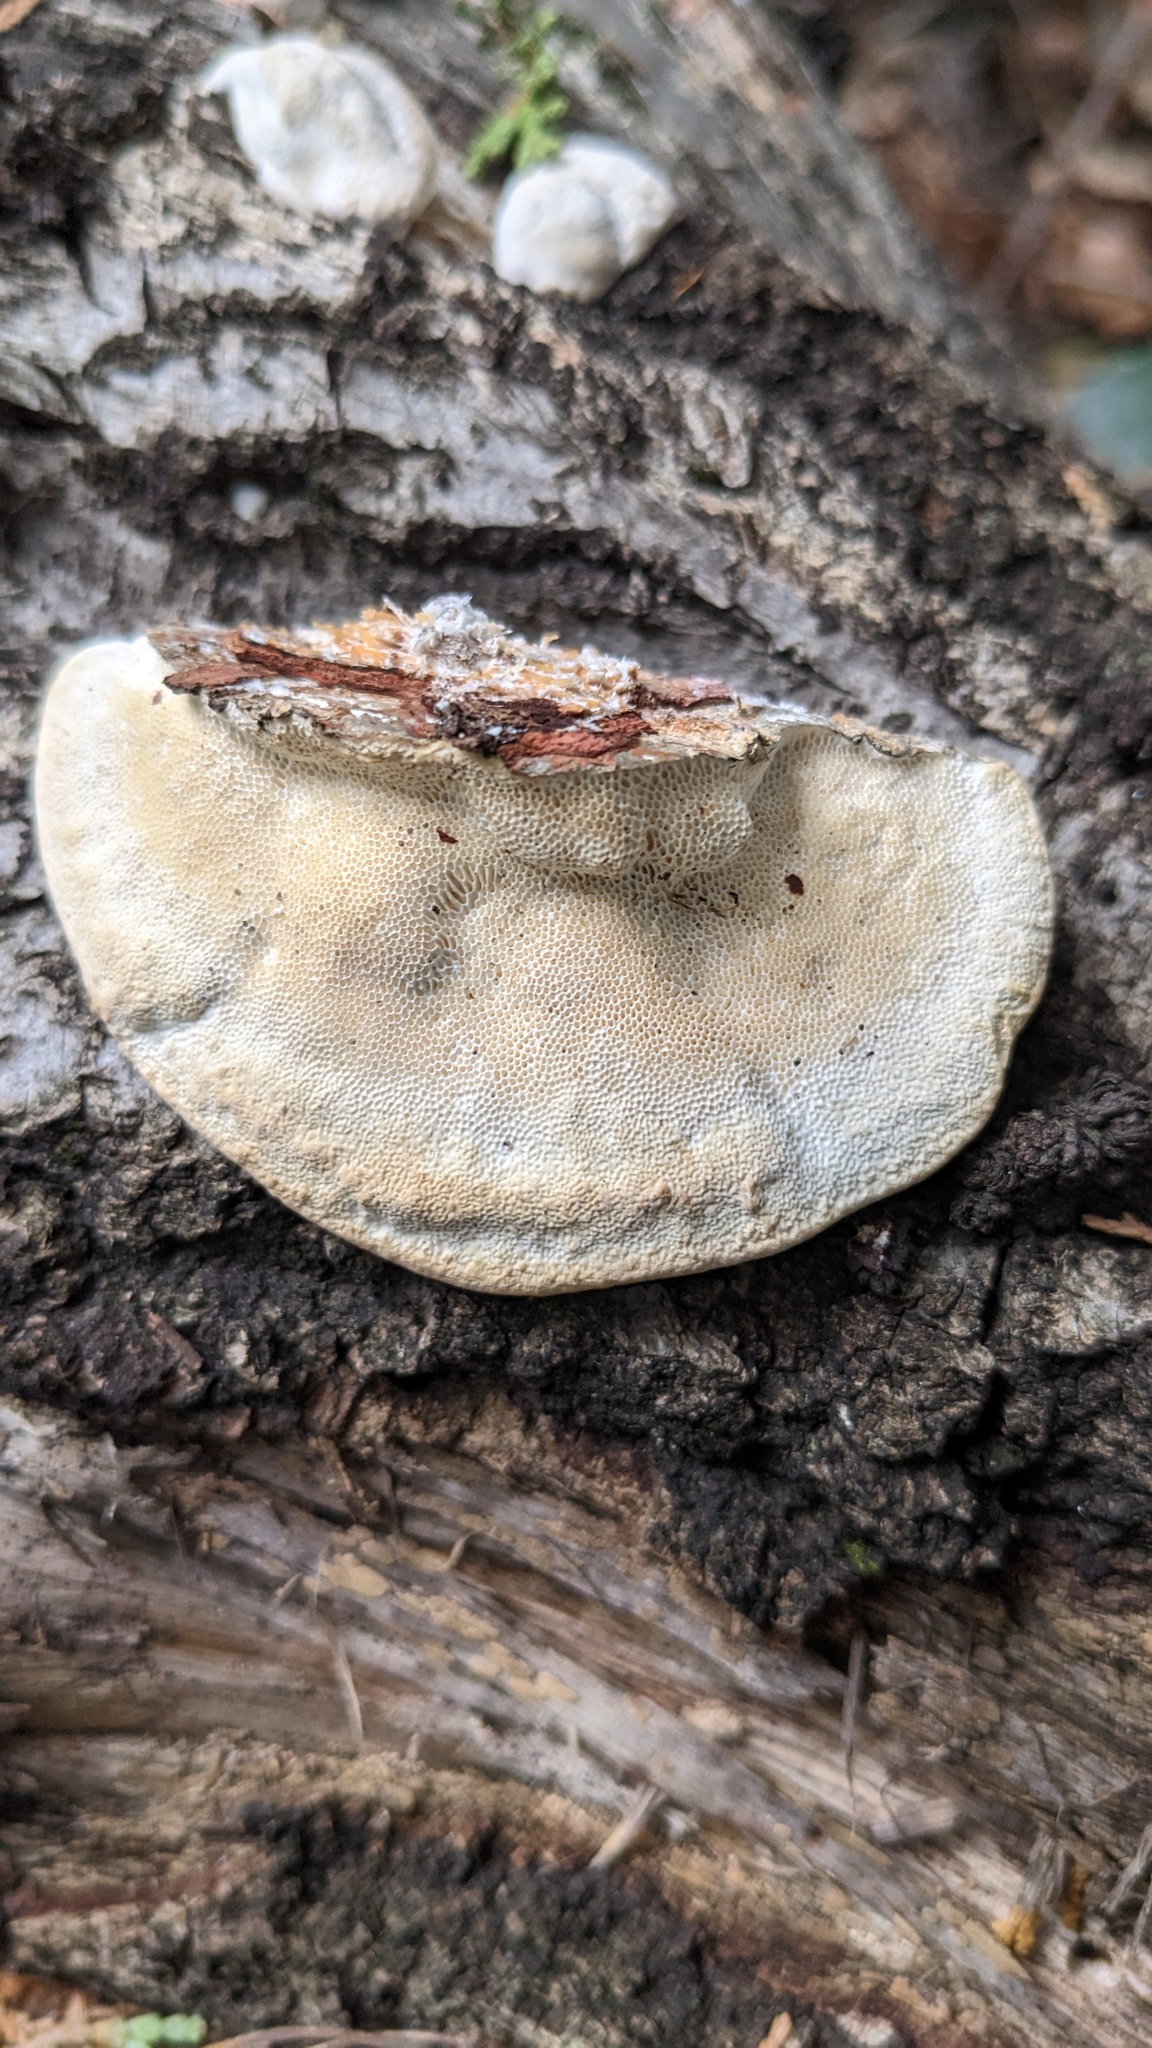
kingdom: Fungi
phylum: Basidiomycota
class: Agaricomycetes
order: Polyporales
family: Polyporaceae
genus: Trametes
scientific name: Trametes orientalis
